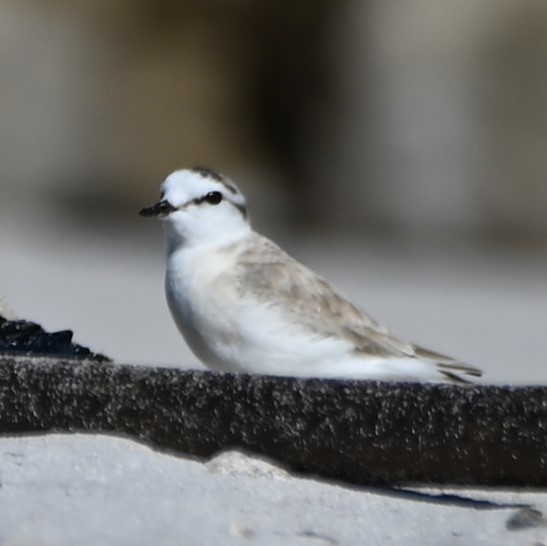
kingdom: Animalia
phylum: Chordata
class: Aves
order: Charadriiformes
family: Charadriidae
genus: Anarhynchus
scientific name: Anarhynchus
